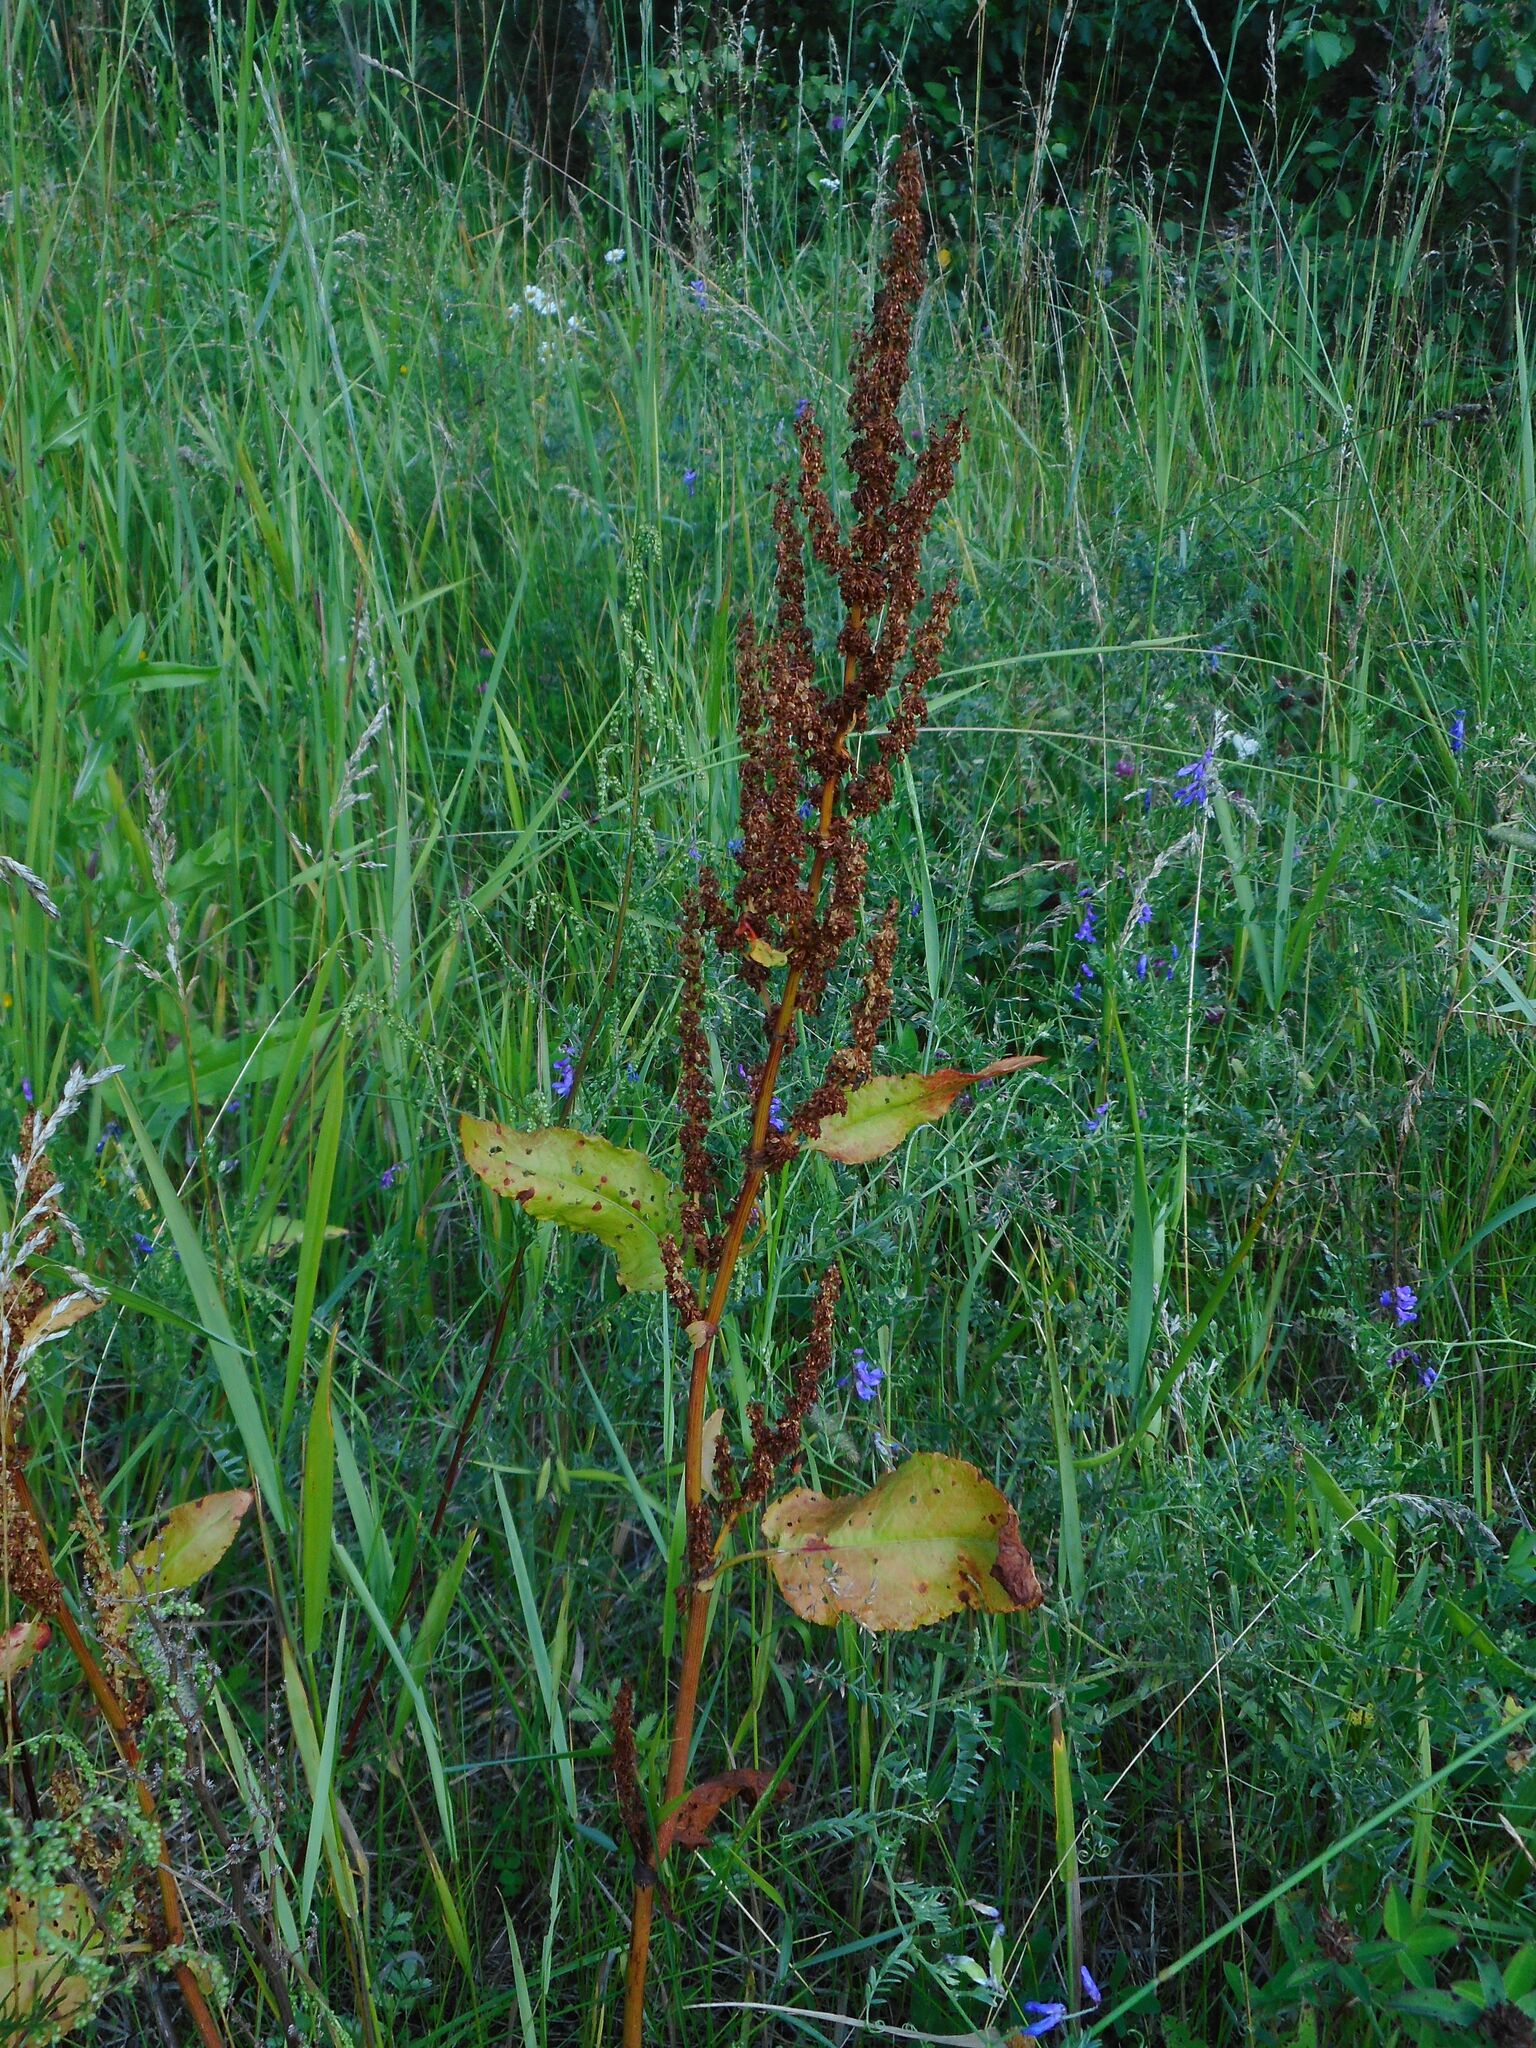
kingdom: Plantae
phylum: Tracheophyta
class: Magnoliopsida
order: Caryophyllales
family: Polygonaceae
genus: Rumex
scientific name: Rumex obtusifolius
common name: Bitter dock
